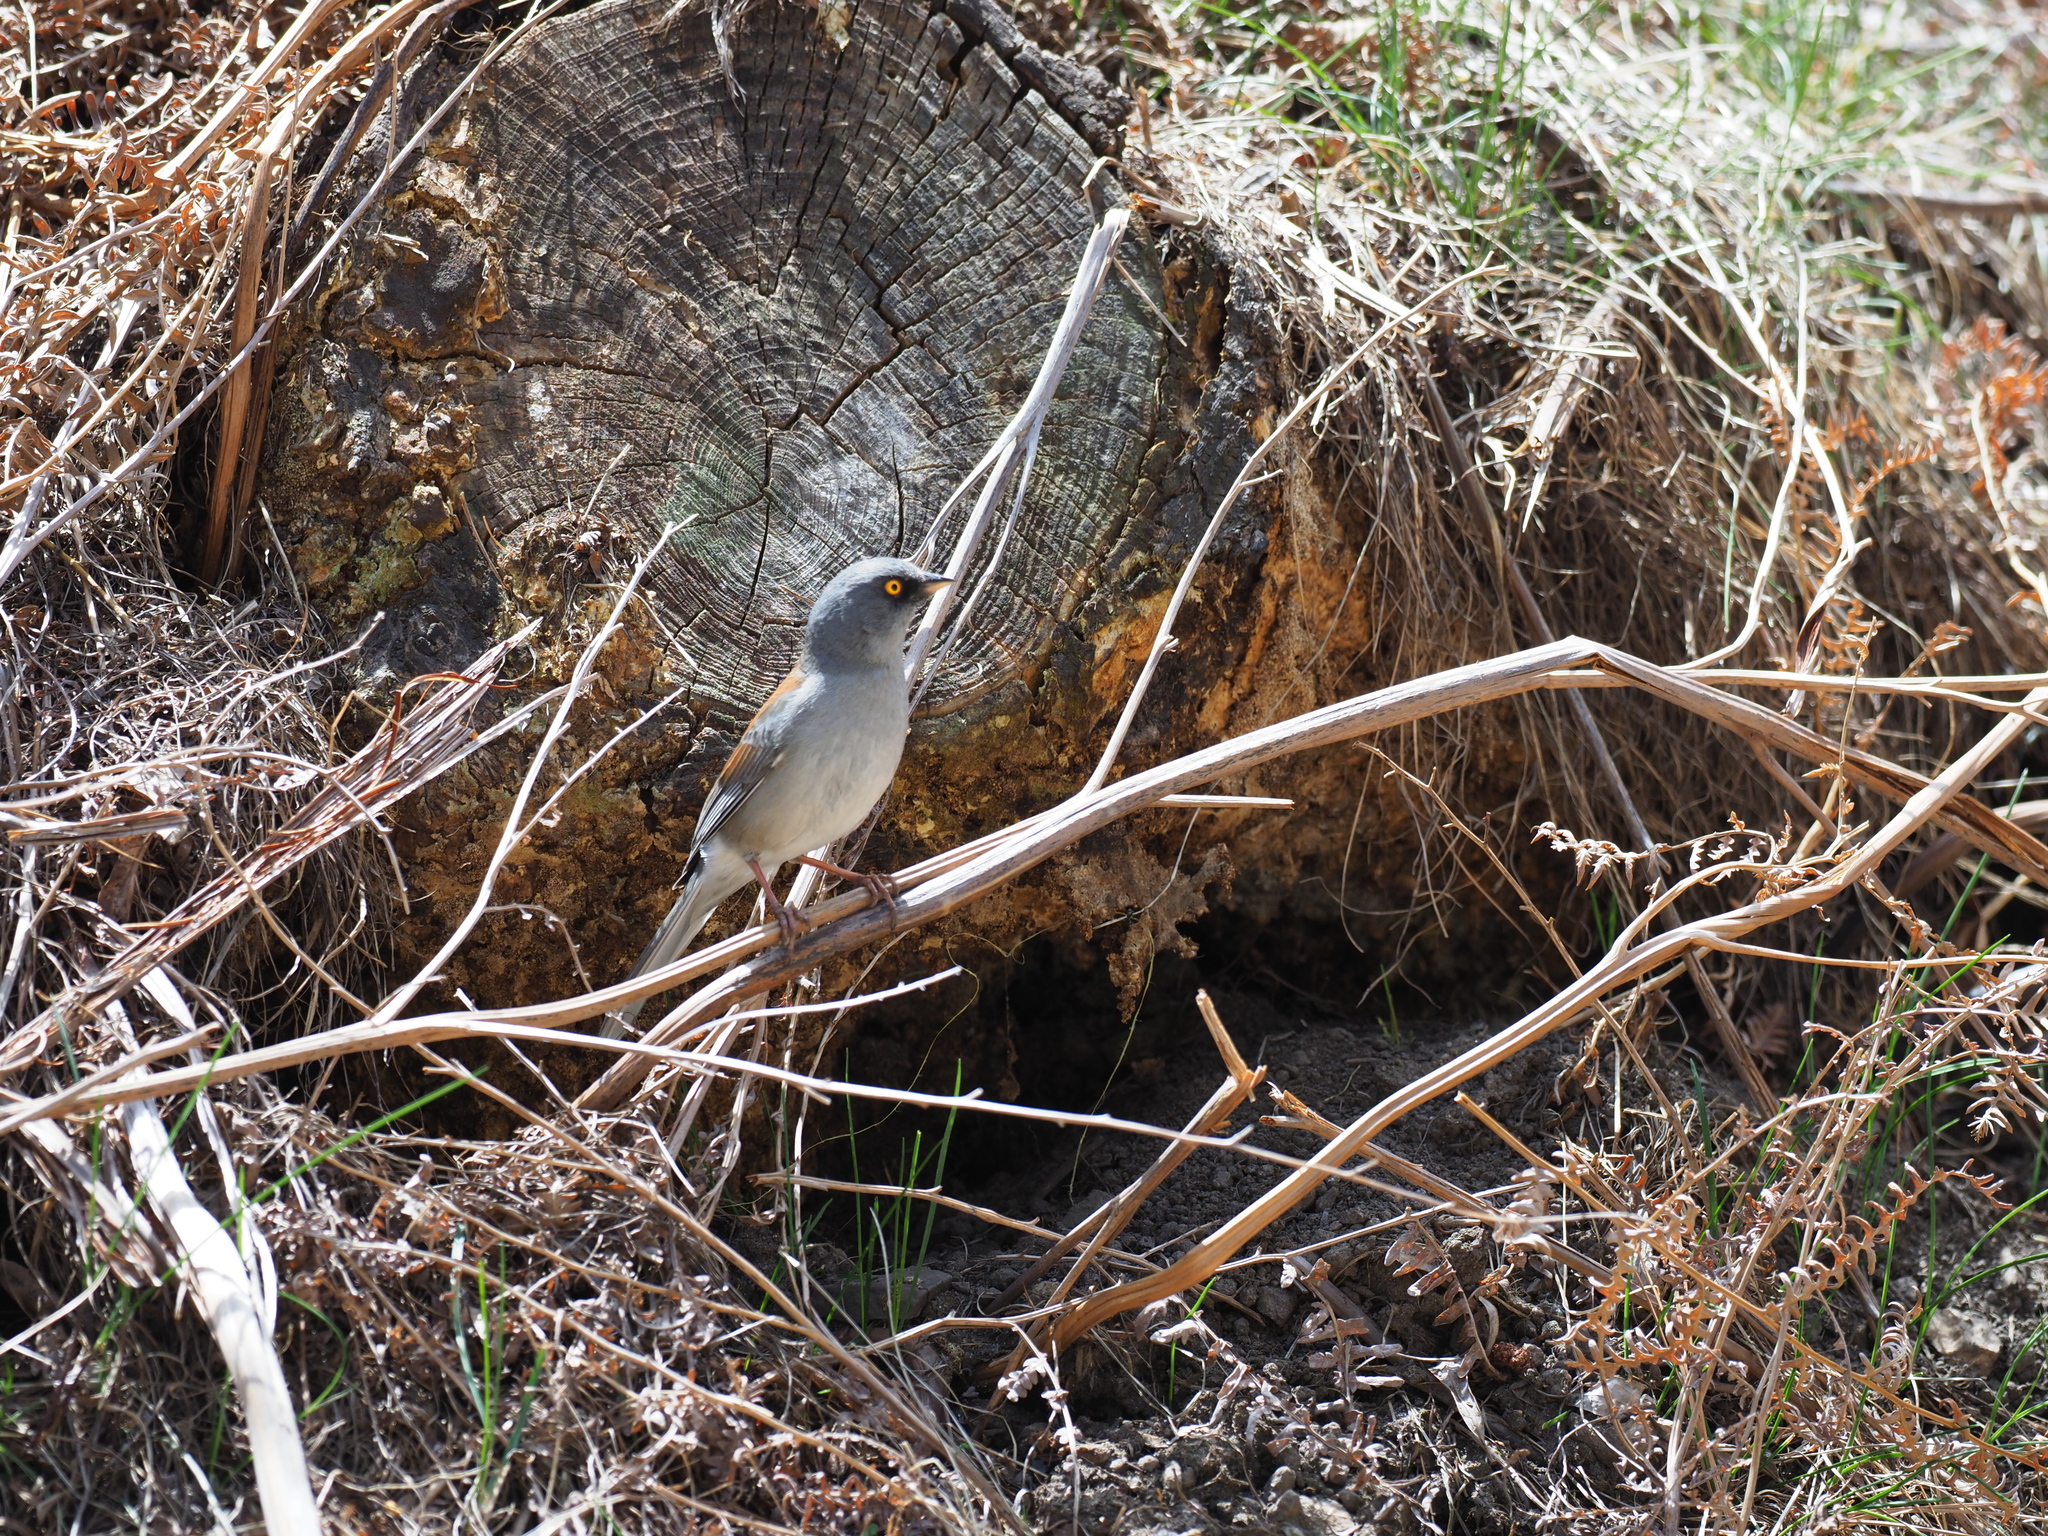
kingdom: Animalia
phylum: Chordata
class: Aves
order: Passeriformes
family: Passerellidae
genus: Junco
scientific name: Junco phaeonotus
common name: Yellow-eyed junco
